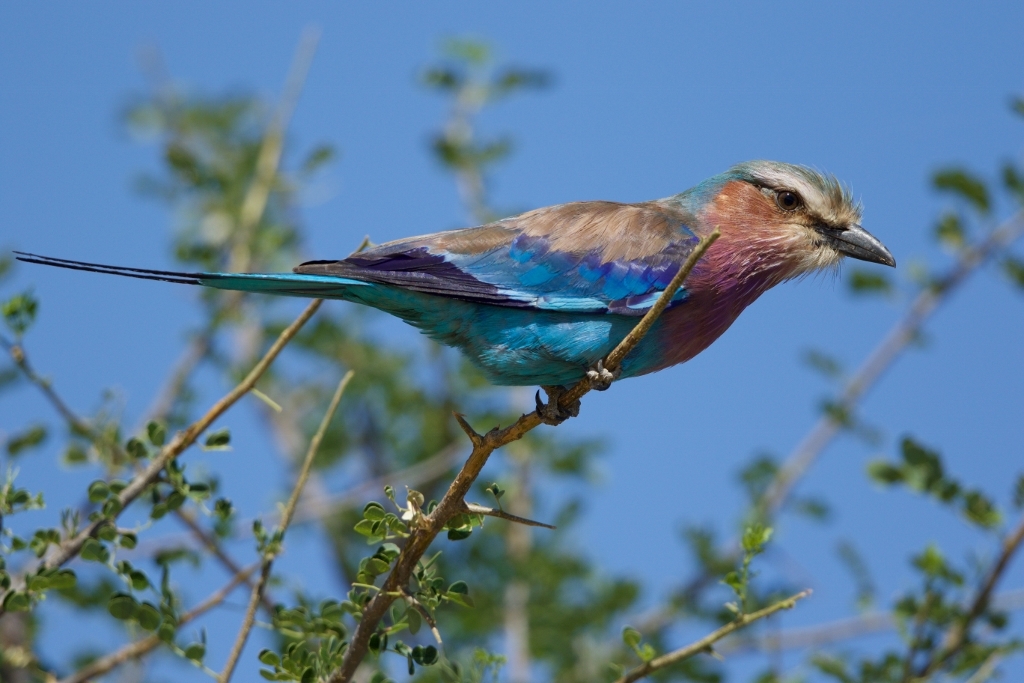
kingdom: Animalia
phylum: Chordata
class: Aves
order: Coraciiformes
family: Coraciidae
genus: Coracias
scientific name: Coracias caudatus
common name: Lilac-breasted roller
